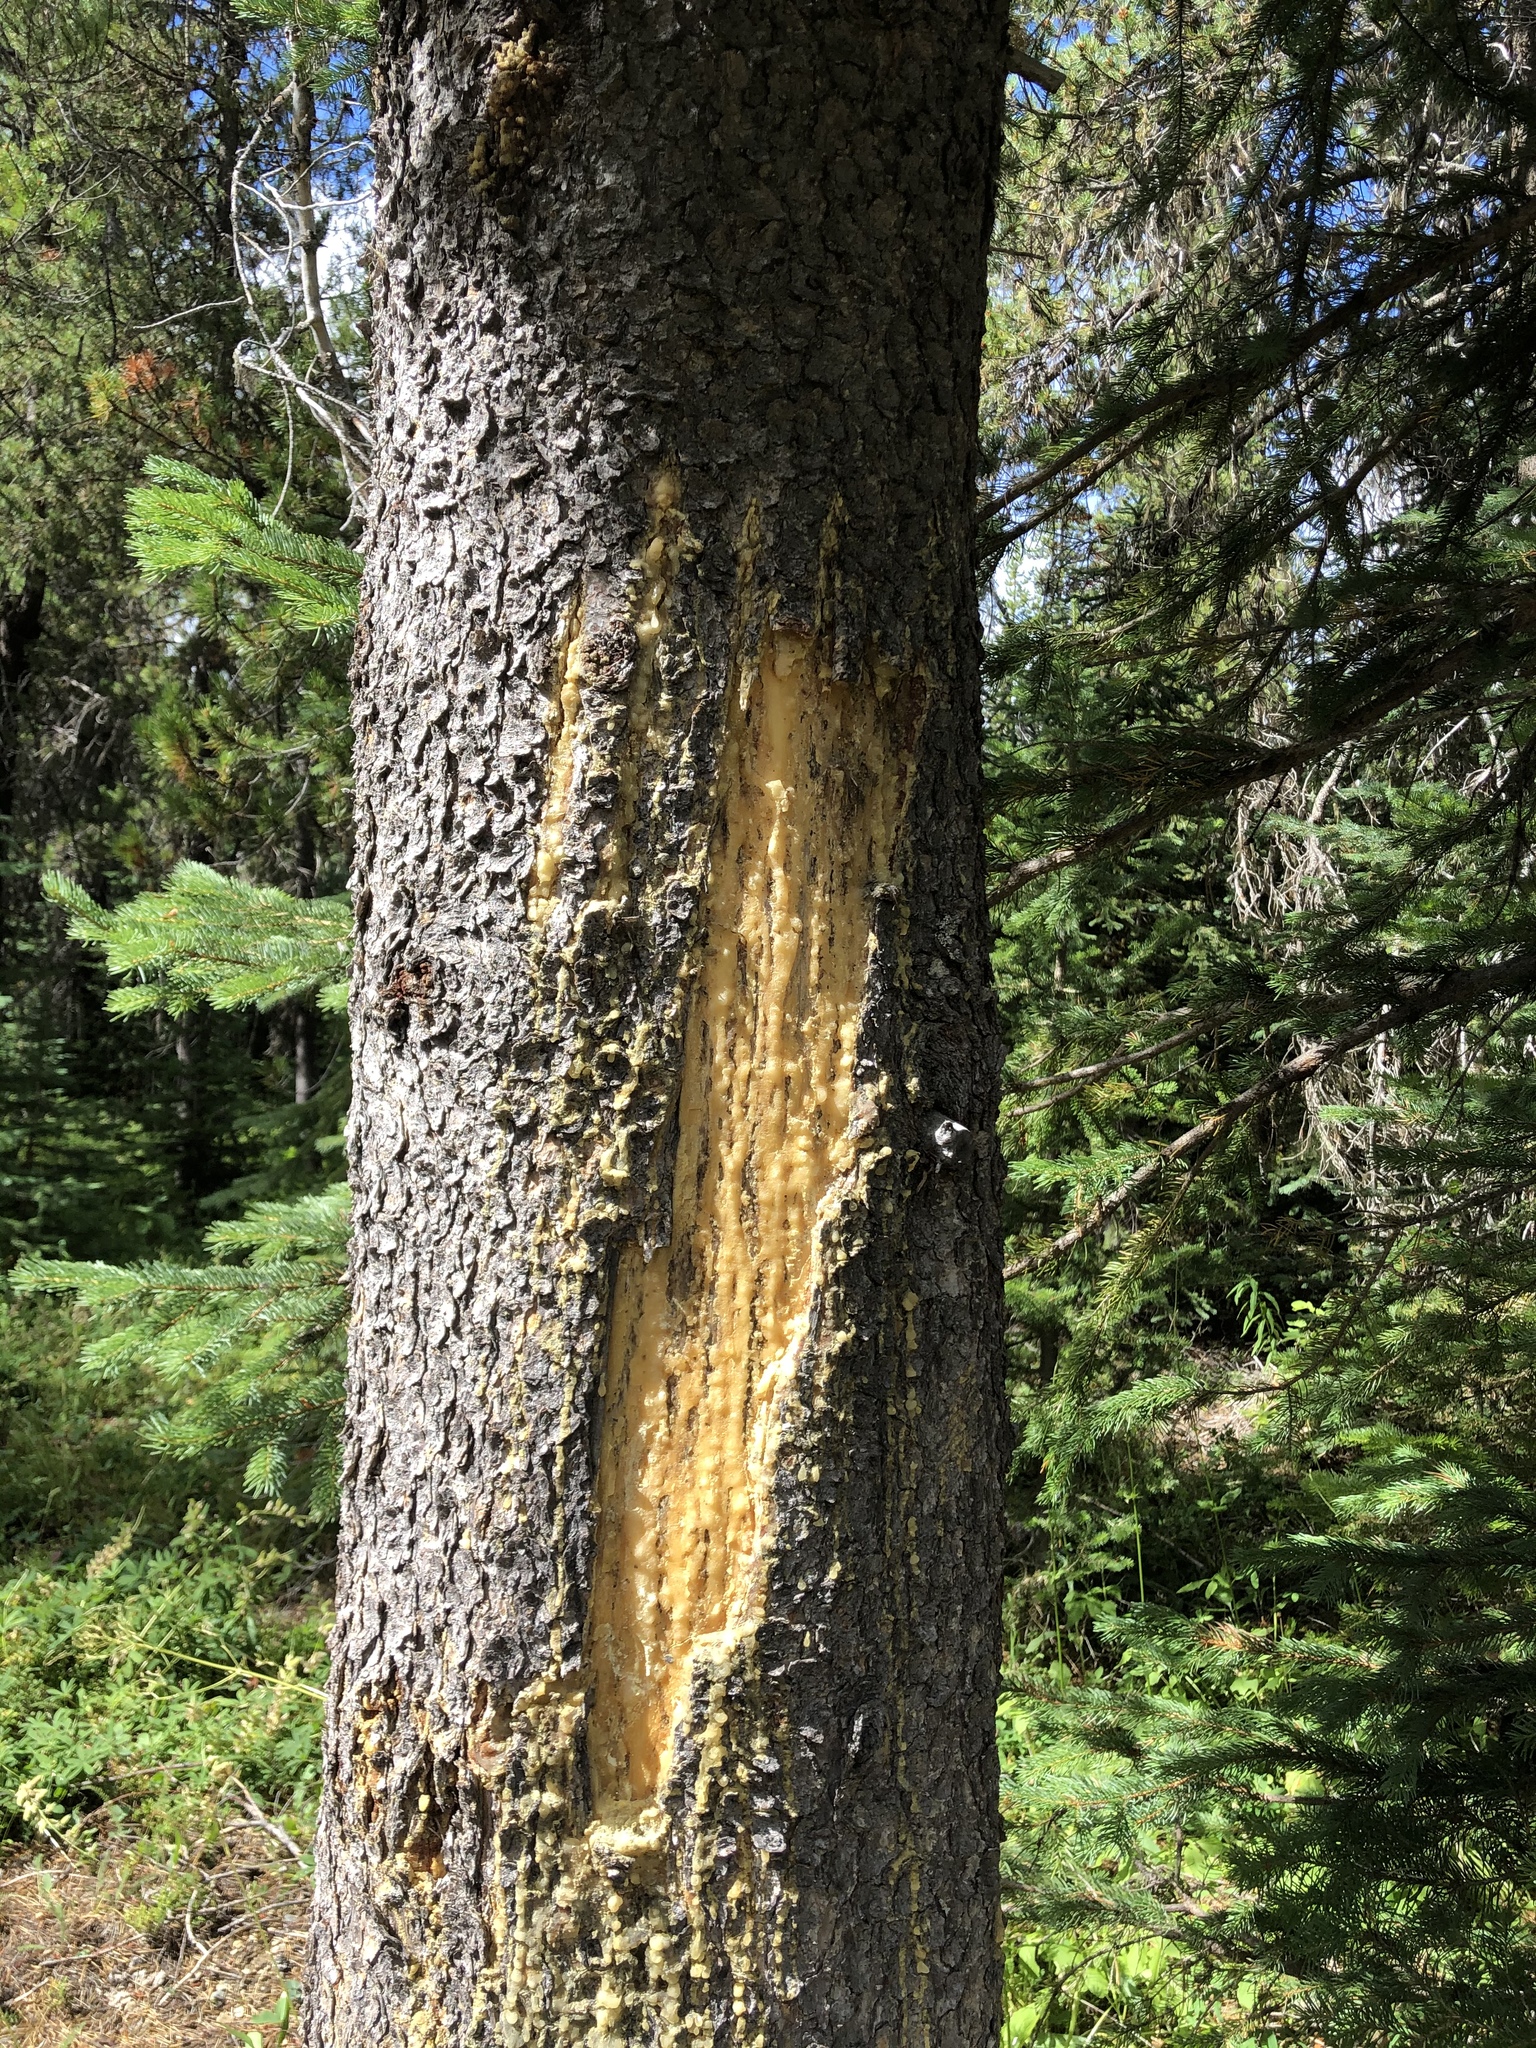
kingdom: Animalia
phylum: Chordata
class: Mammalia
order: Carnivora
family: Ursidae
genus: Ursus
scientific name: Ursus americanus
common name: American black bear
